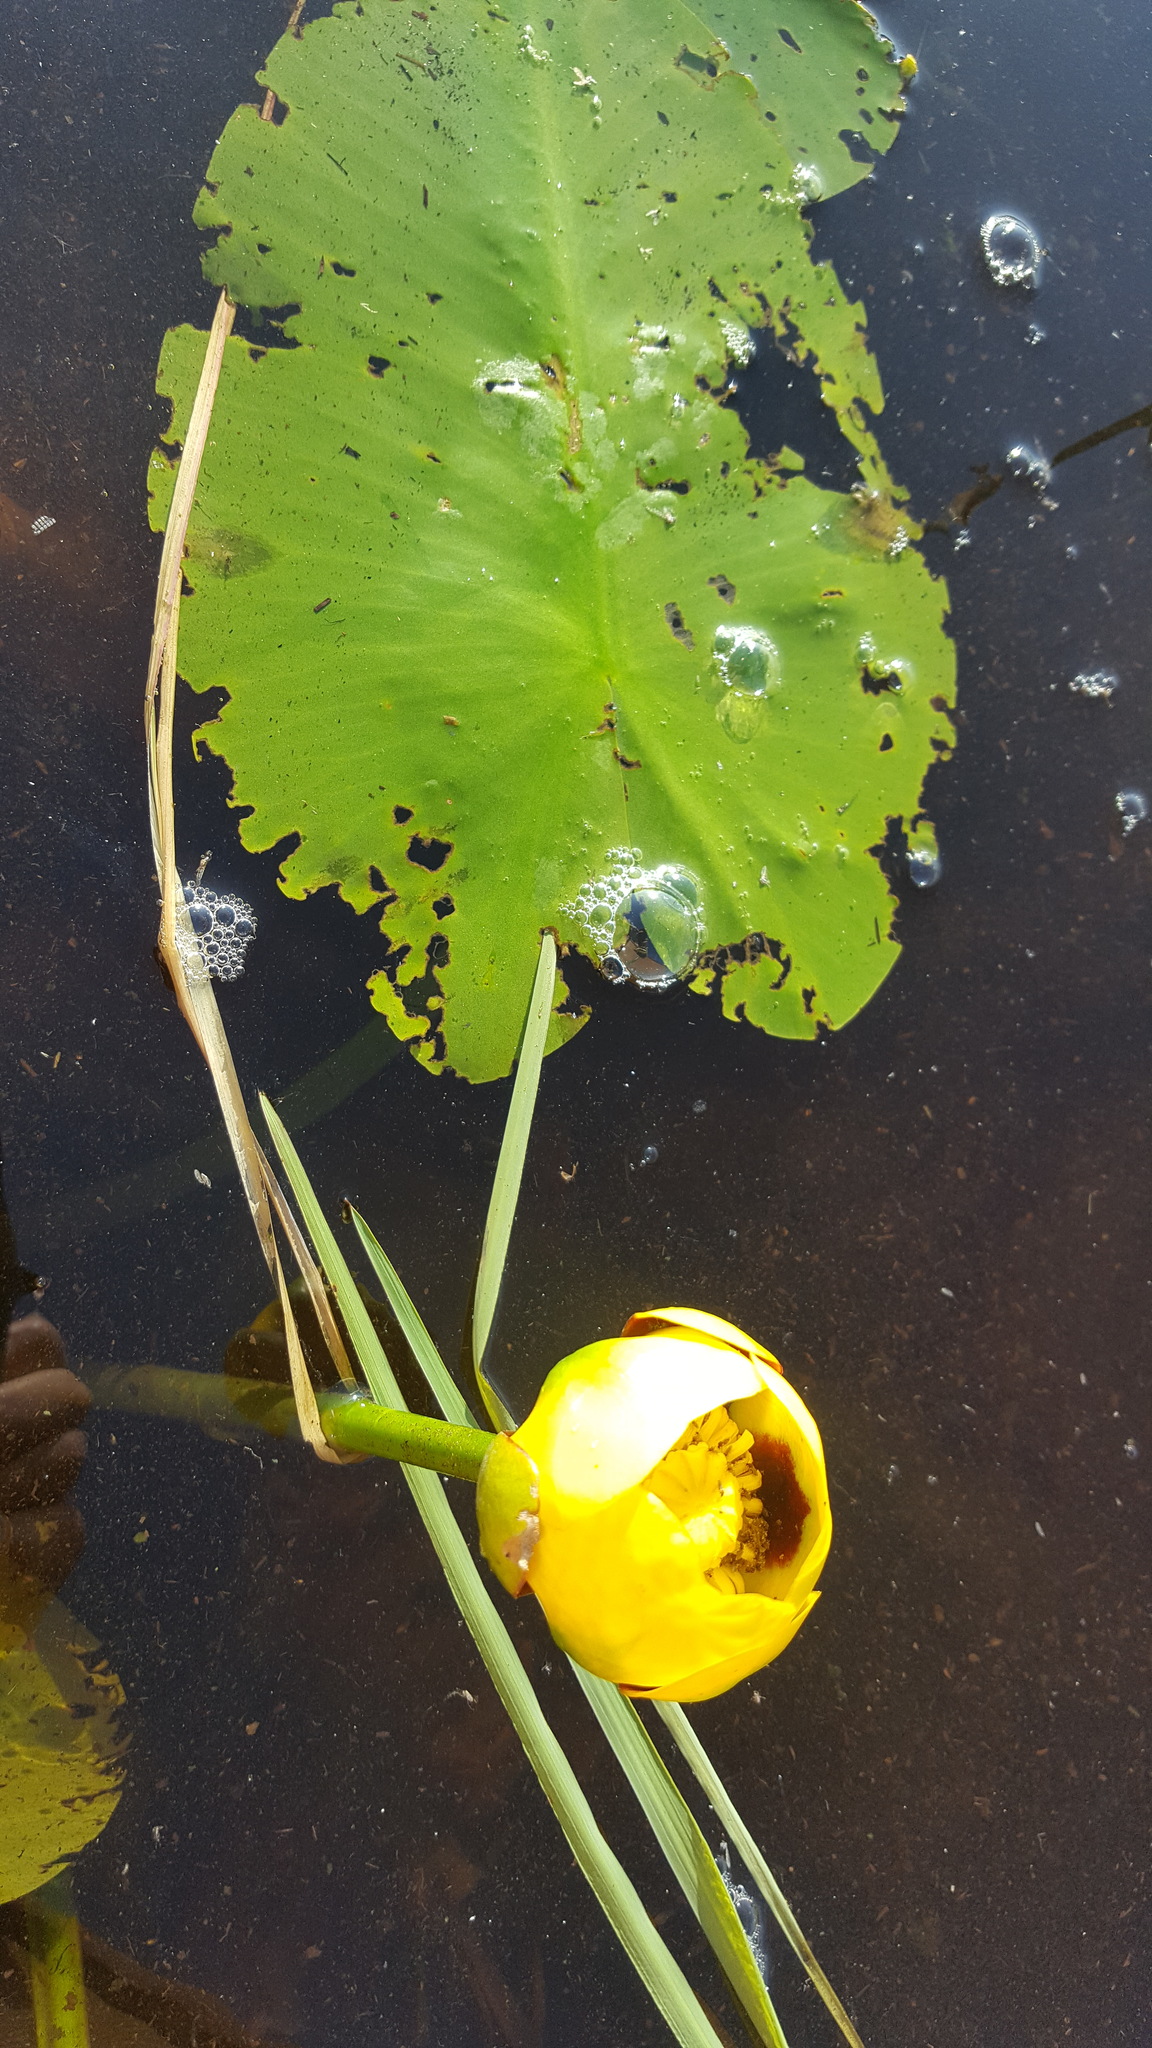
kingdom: Plantae
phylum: Tracheophyta
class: Magnoliopsida
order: Nymphaeales
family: Nymphaeaceae
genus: Nuphar
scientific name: Nuphar variegata
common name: Beaver-root
